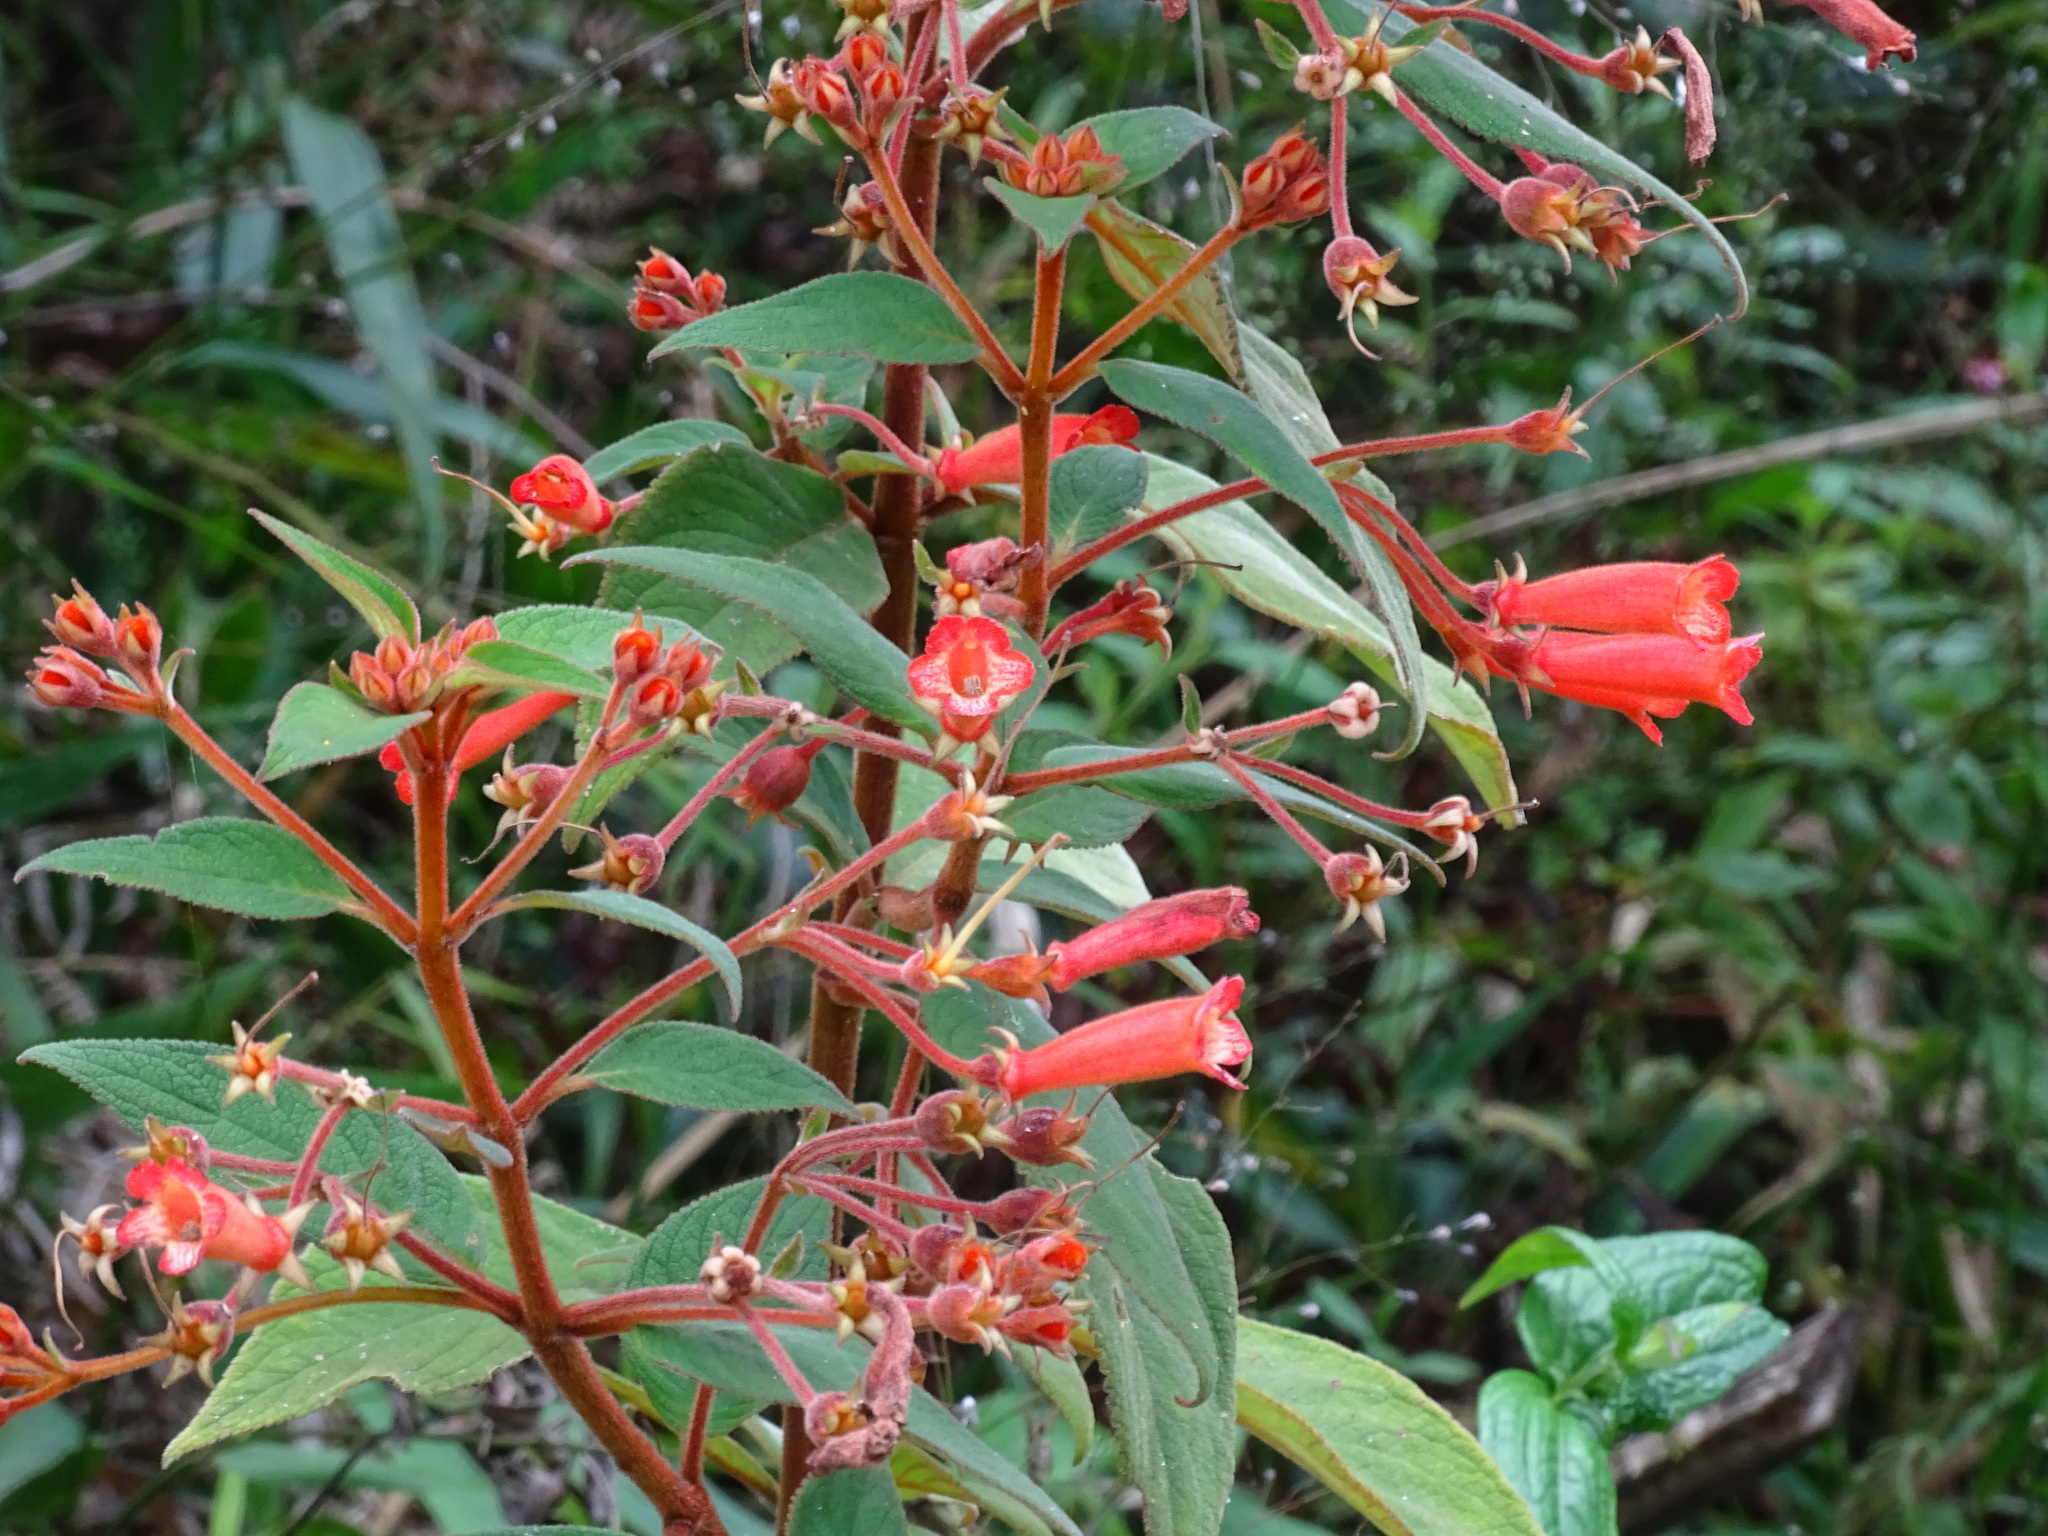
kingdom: Plantae
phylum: Tracheophyta
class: Magnoliopsida
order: Lamiales
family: Gesneriaceae
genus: Moussonia
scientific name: Moussonia deppeana
